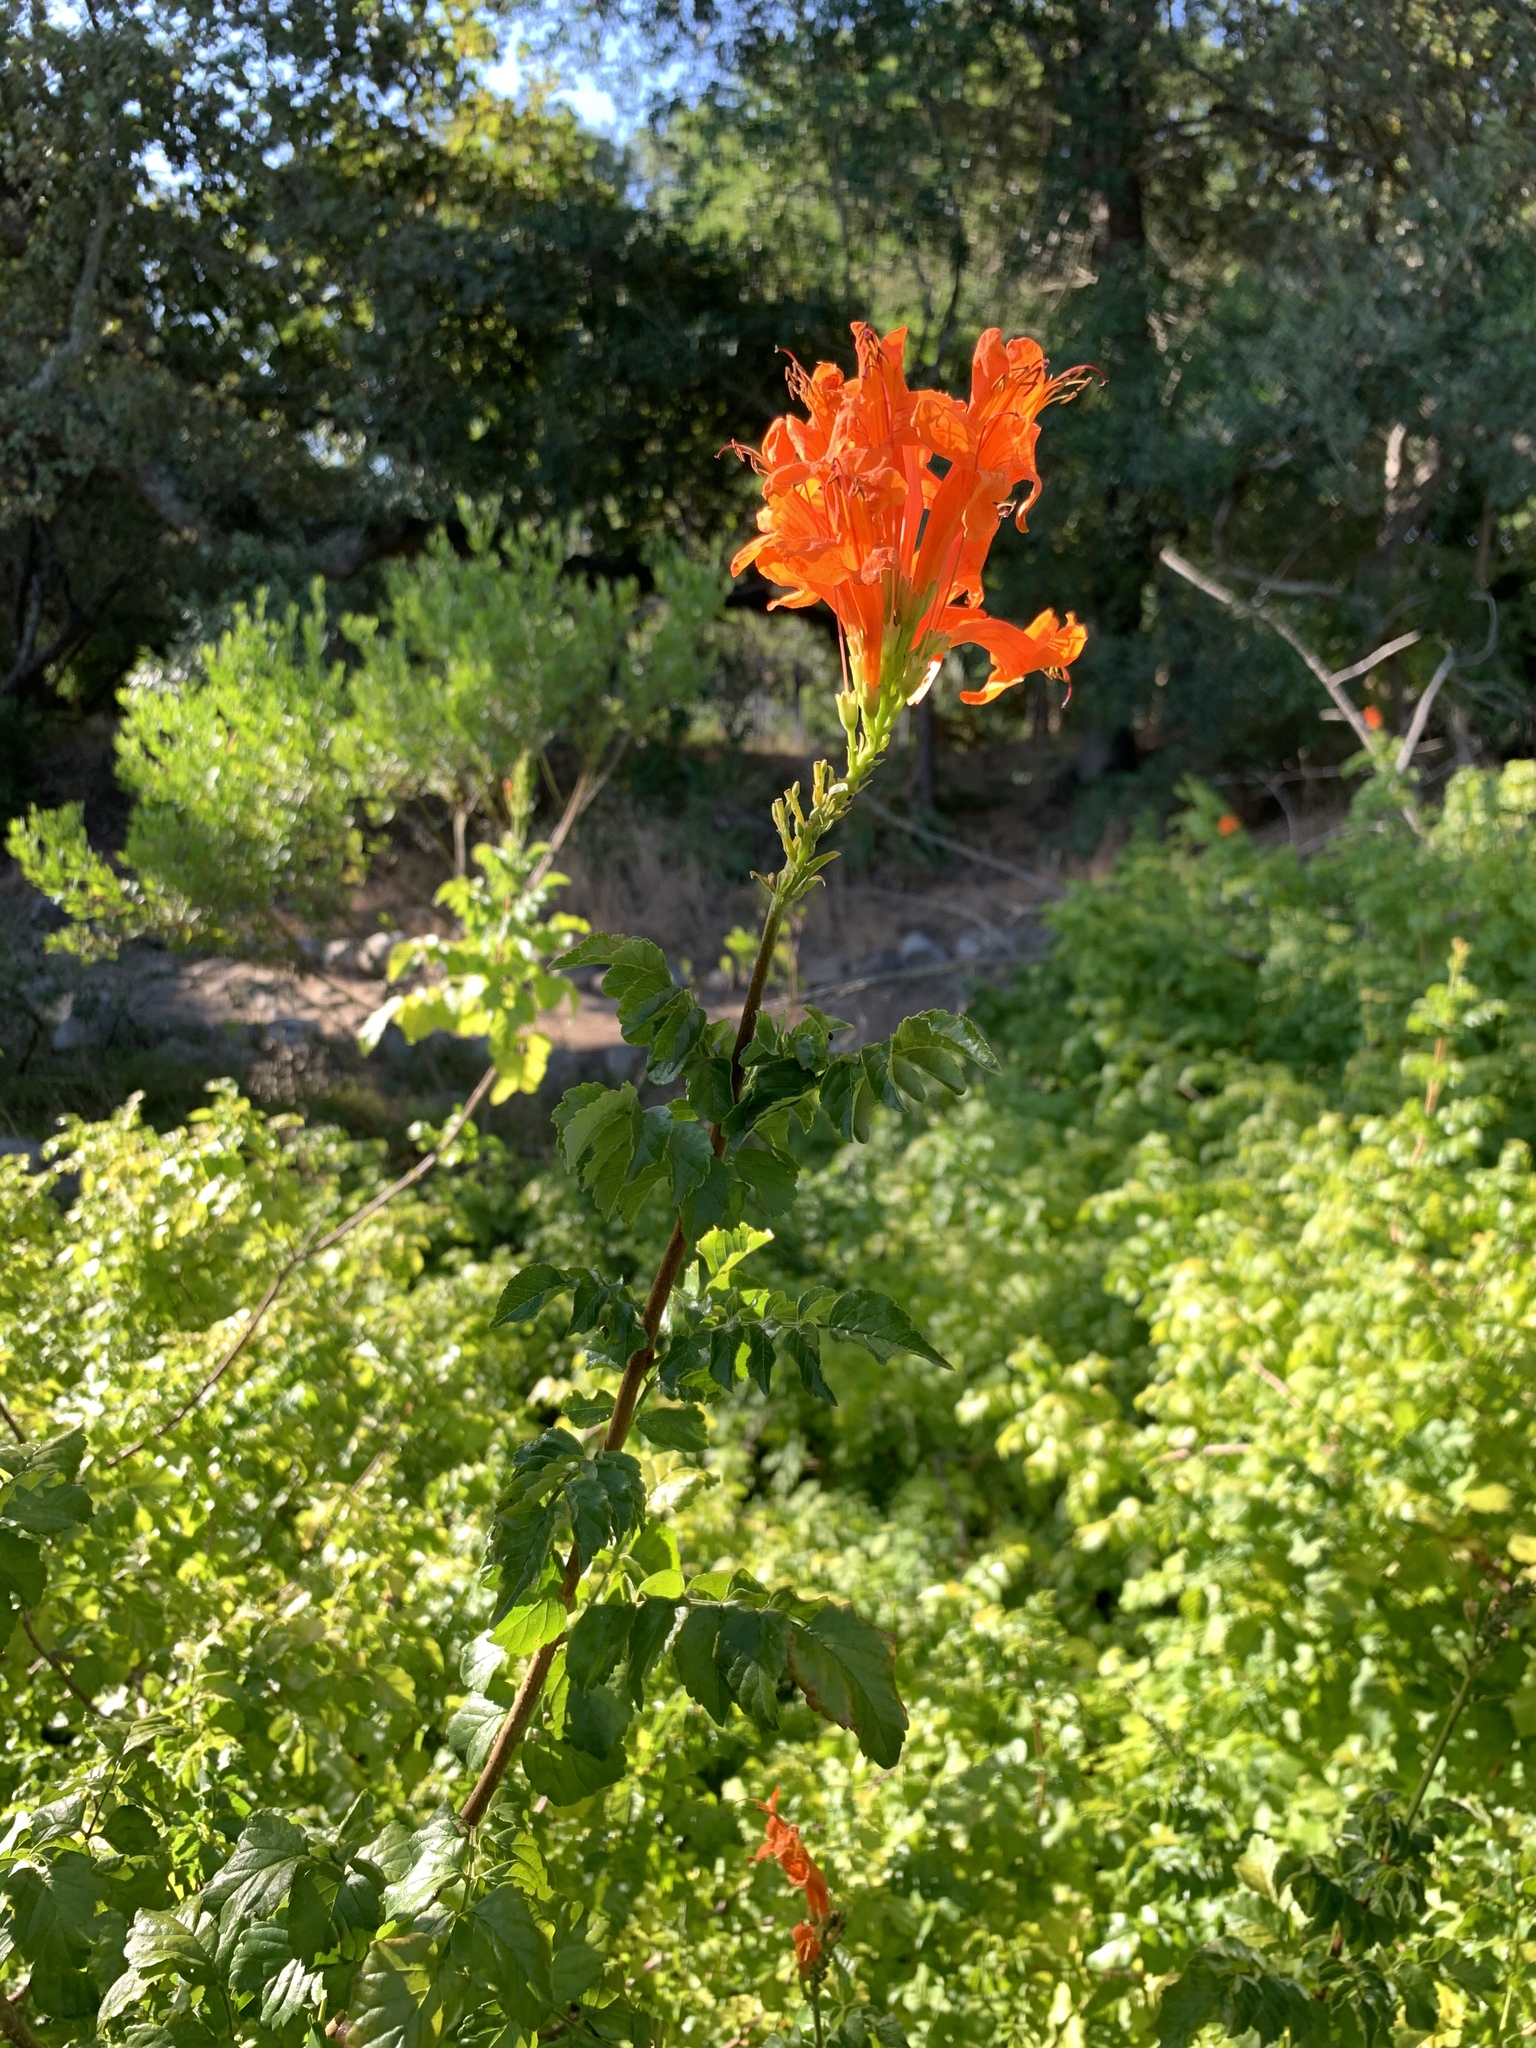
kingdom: Plantae
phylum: Tracheophyta
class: Magnoliopsida
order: Lamiales
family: Bignoniaceae
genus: Tecomaria
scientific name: Tecomaria capensis
